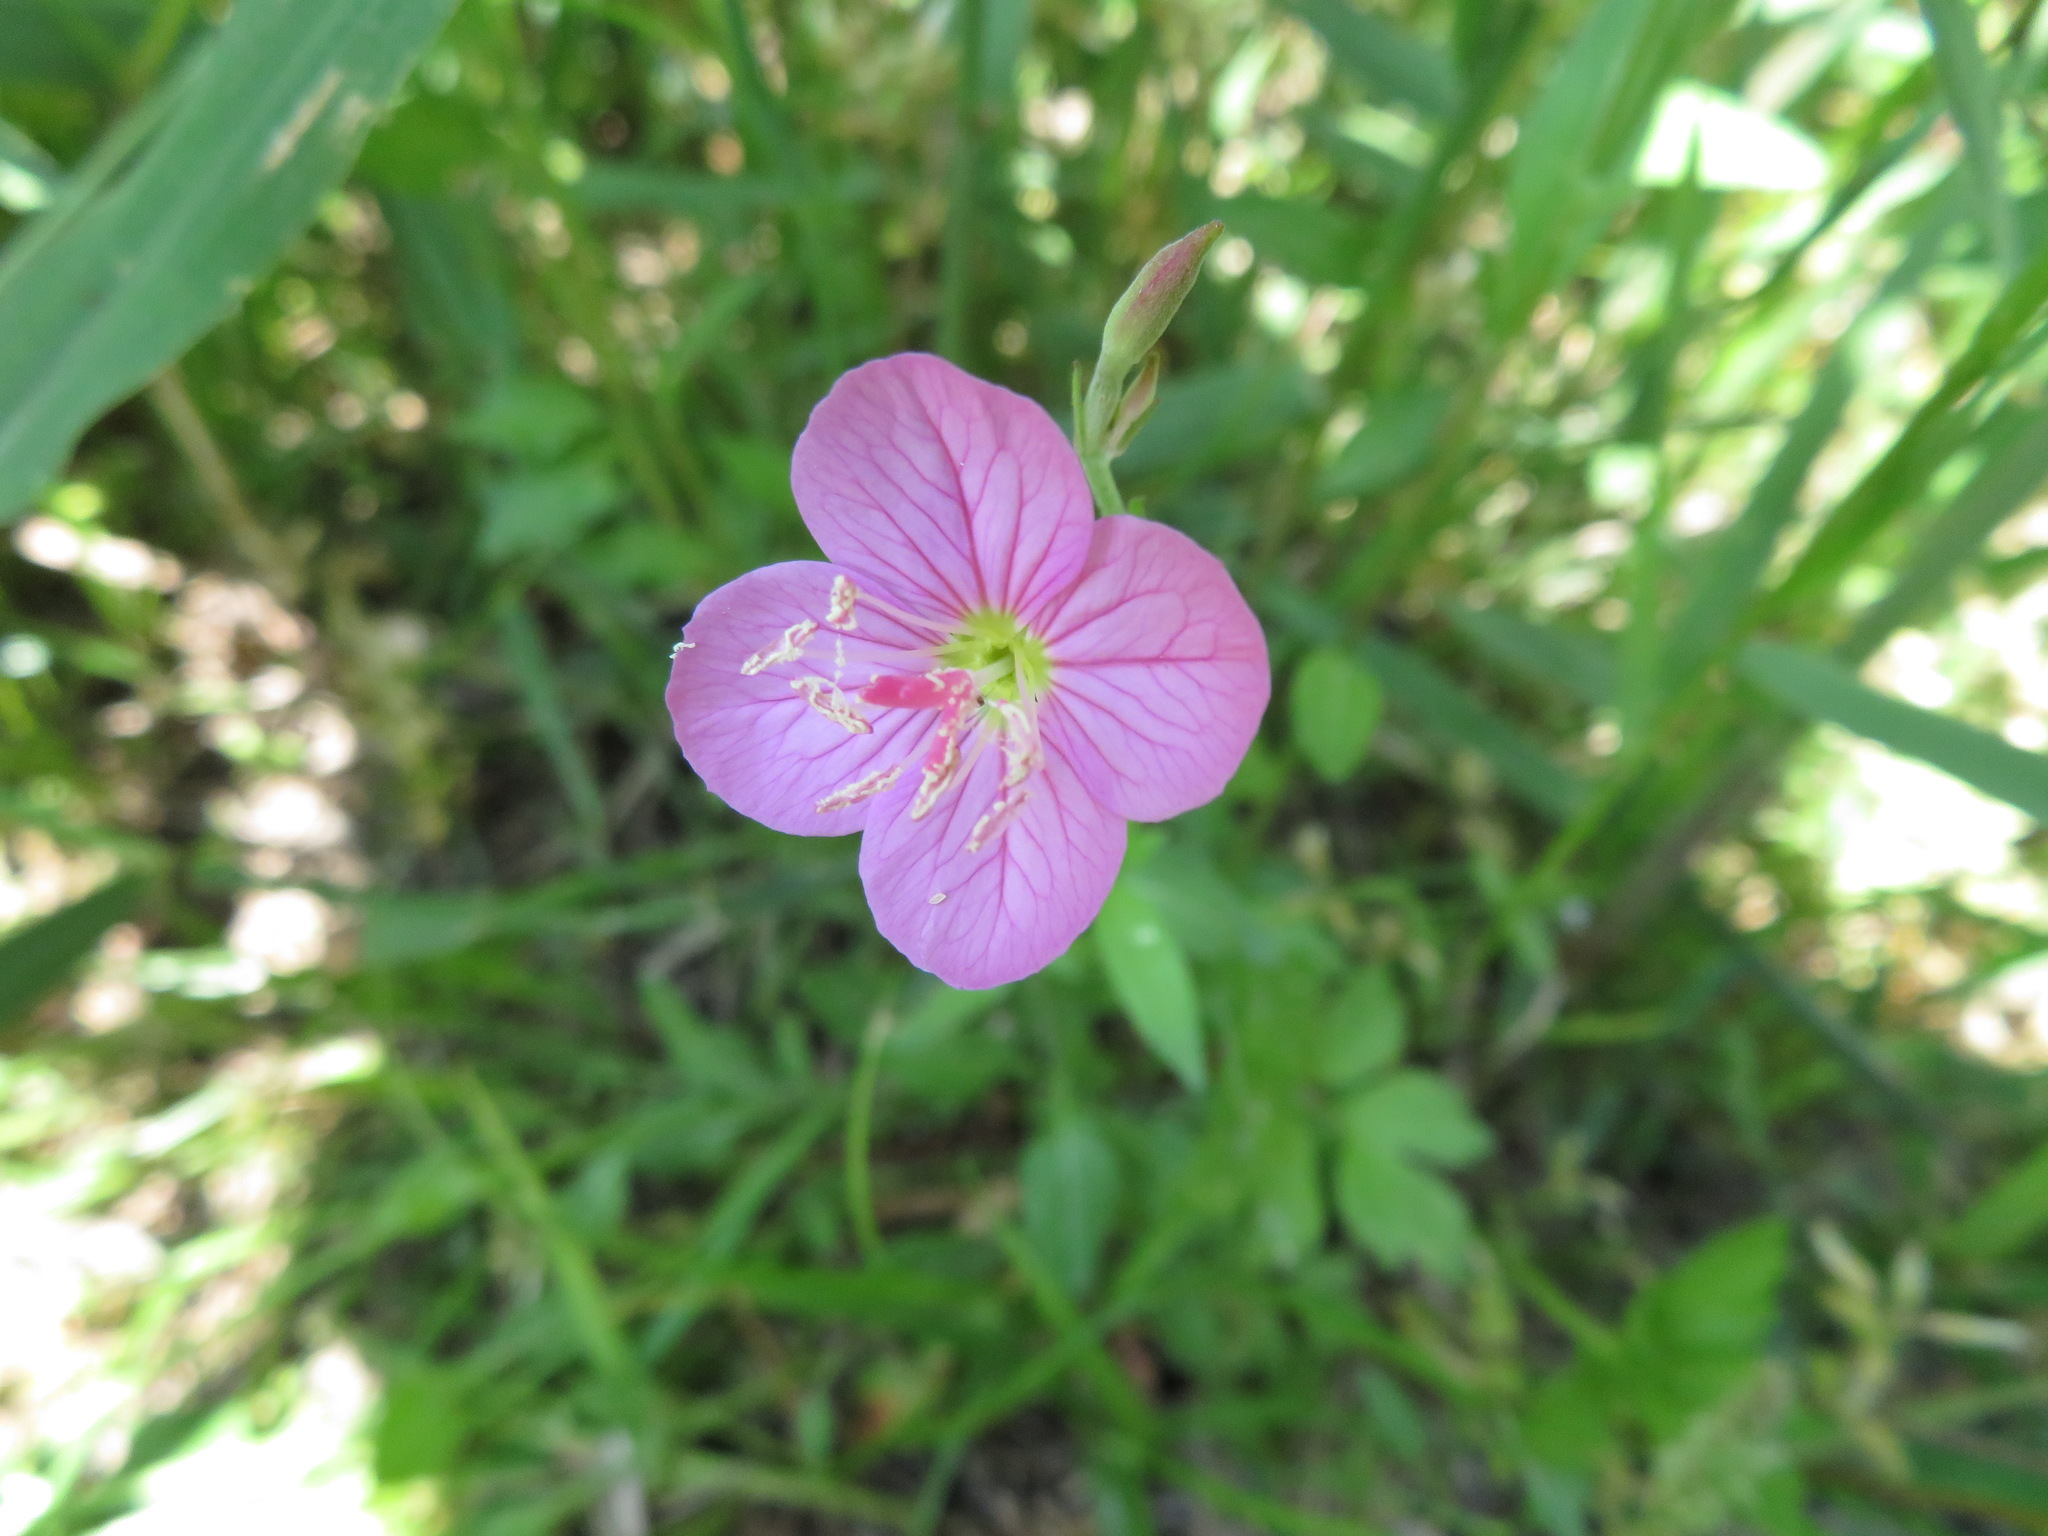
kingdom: Plantae
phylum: Tracheophyta
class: Magnoliopsida
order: Myrtales
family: Onagraceae
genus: Oenothera
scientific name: Oenothera rosea
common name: Rosy evening-primrose
